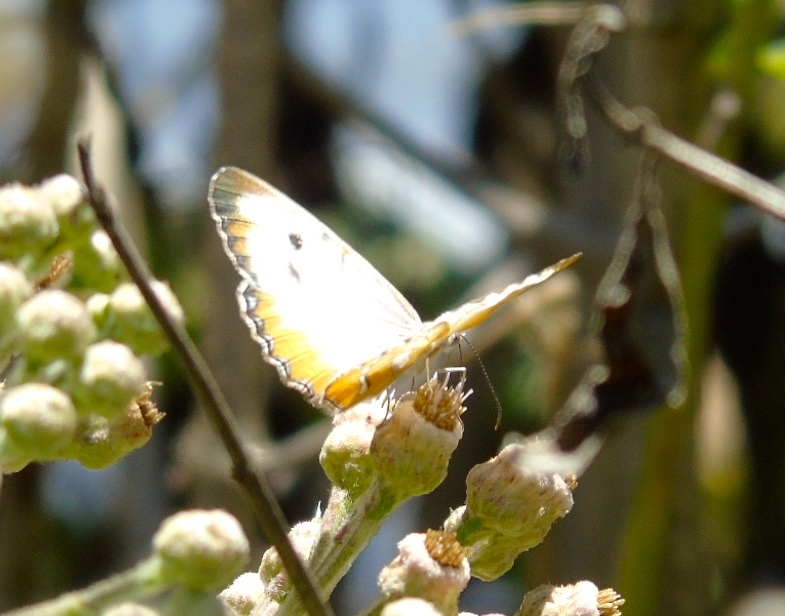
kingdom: Animalia
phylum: Arthropoda
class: Insecta
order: Lepidoptera
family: Nymphalidae
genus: Mestra
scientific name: Mestra amymone
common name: Common mestra
